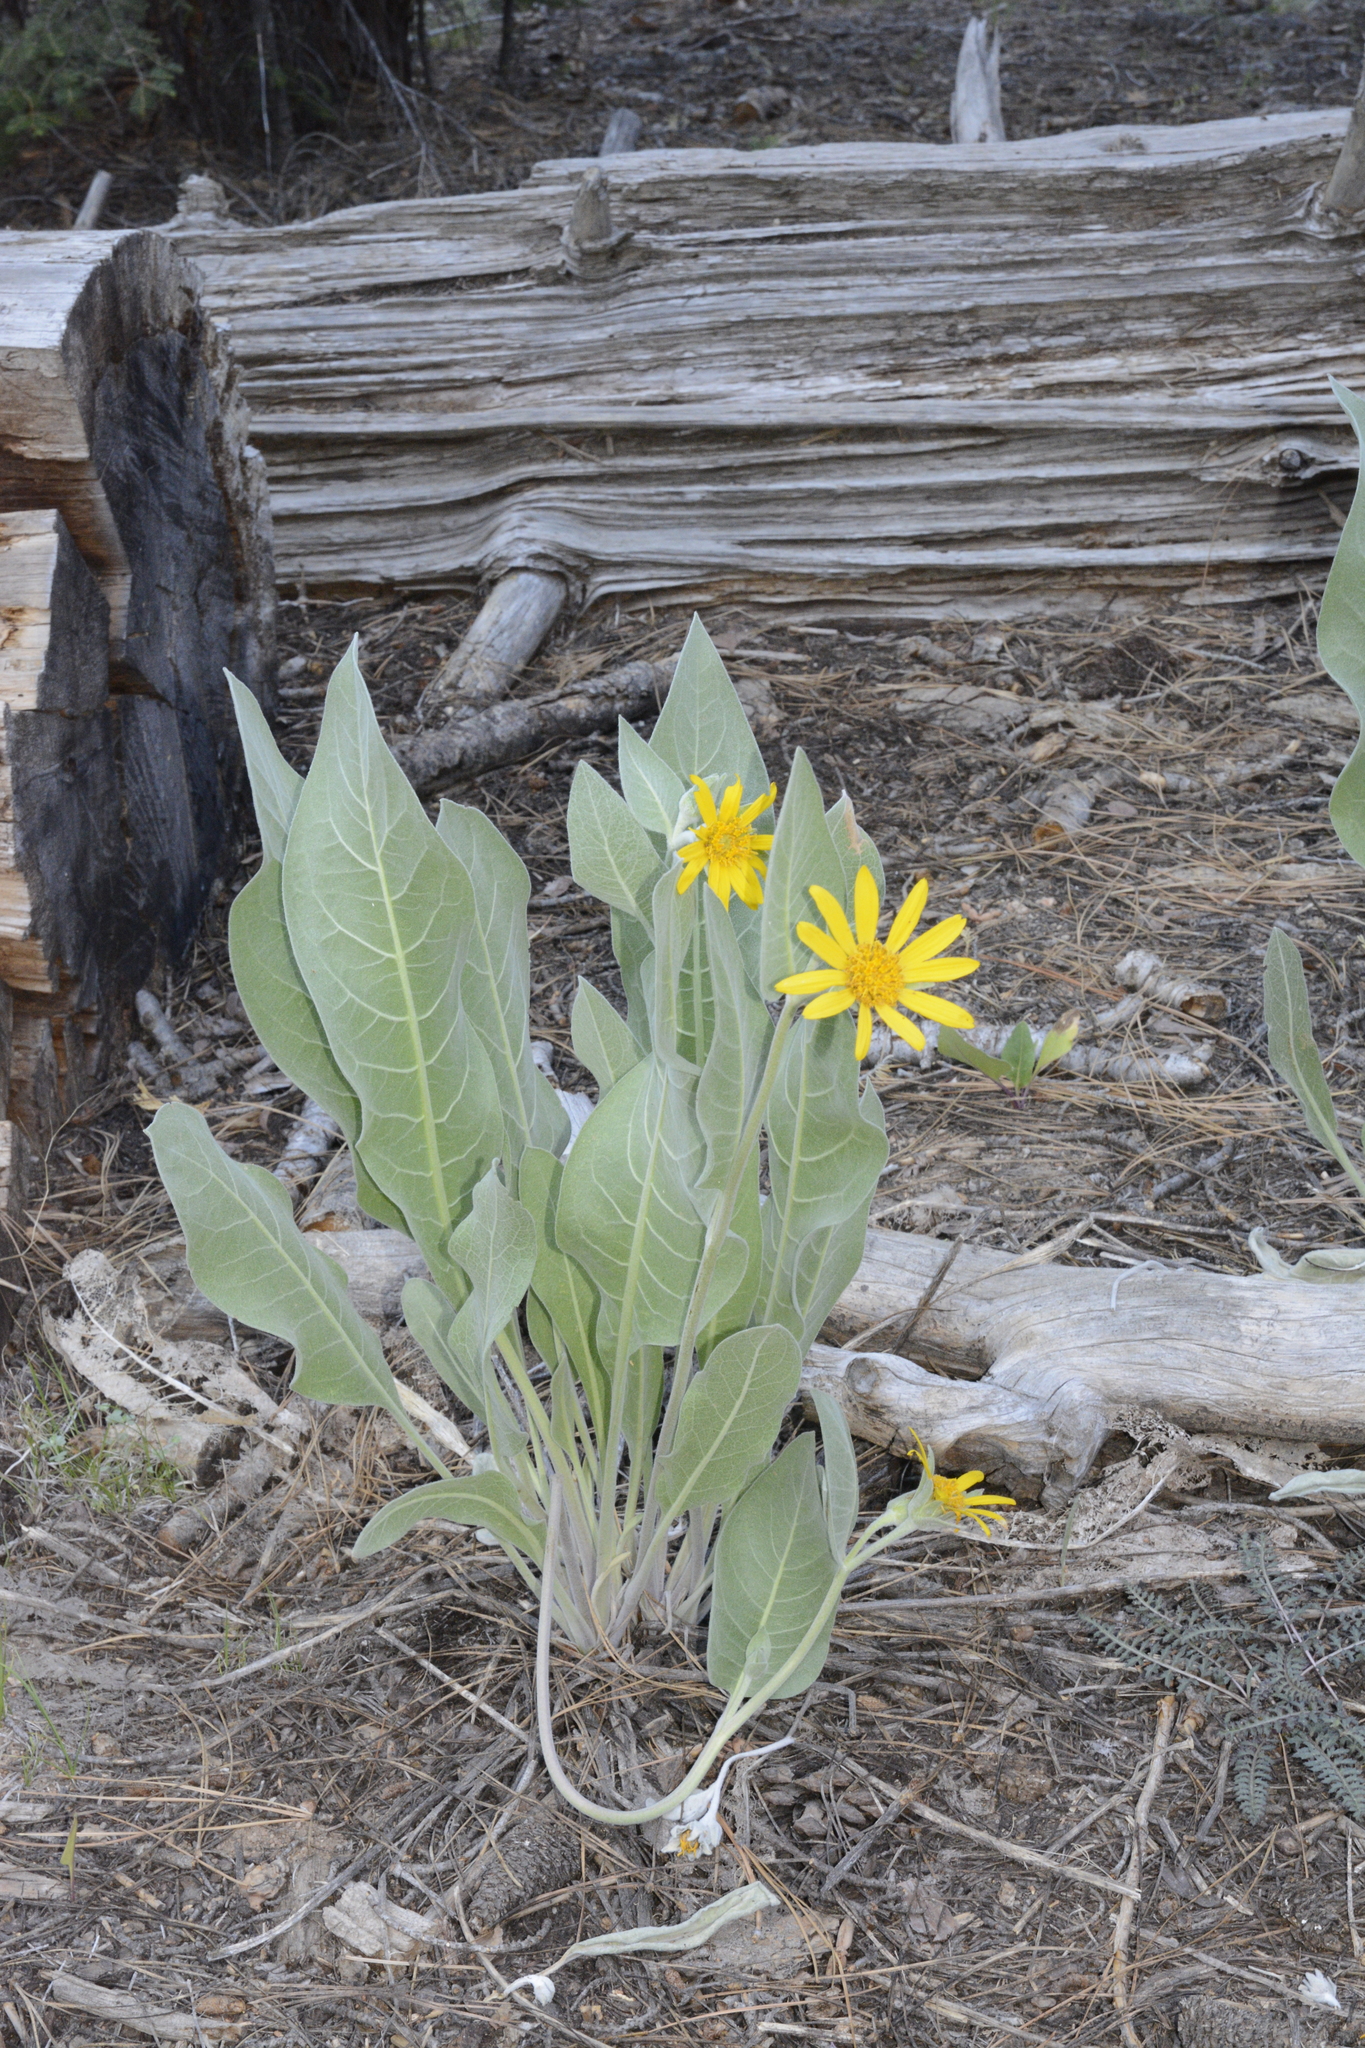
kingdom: Plantae
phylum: Tracheophyta
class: Magnoliopsida
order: Asterales
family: Asteraceae
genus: Wyethia
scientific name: Wyethia mollis
